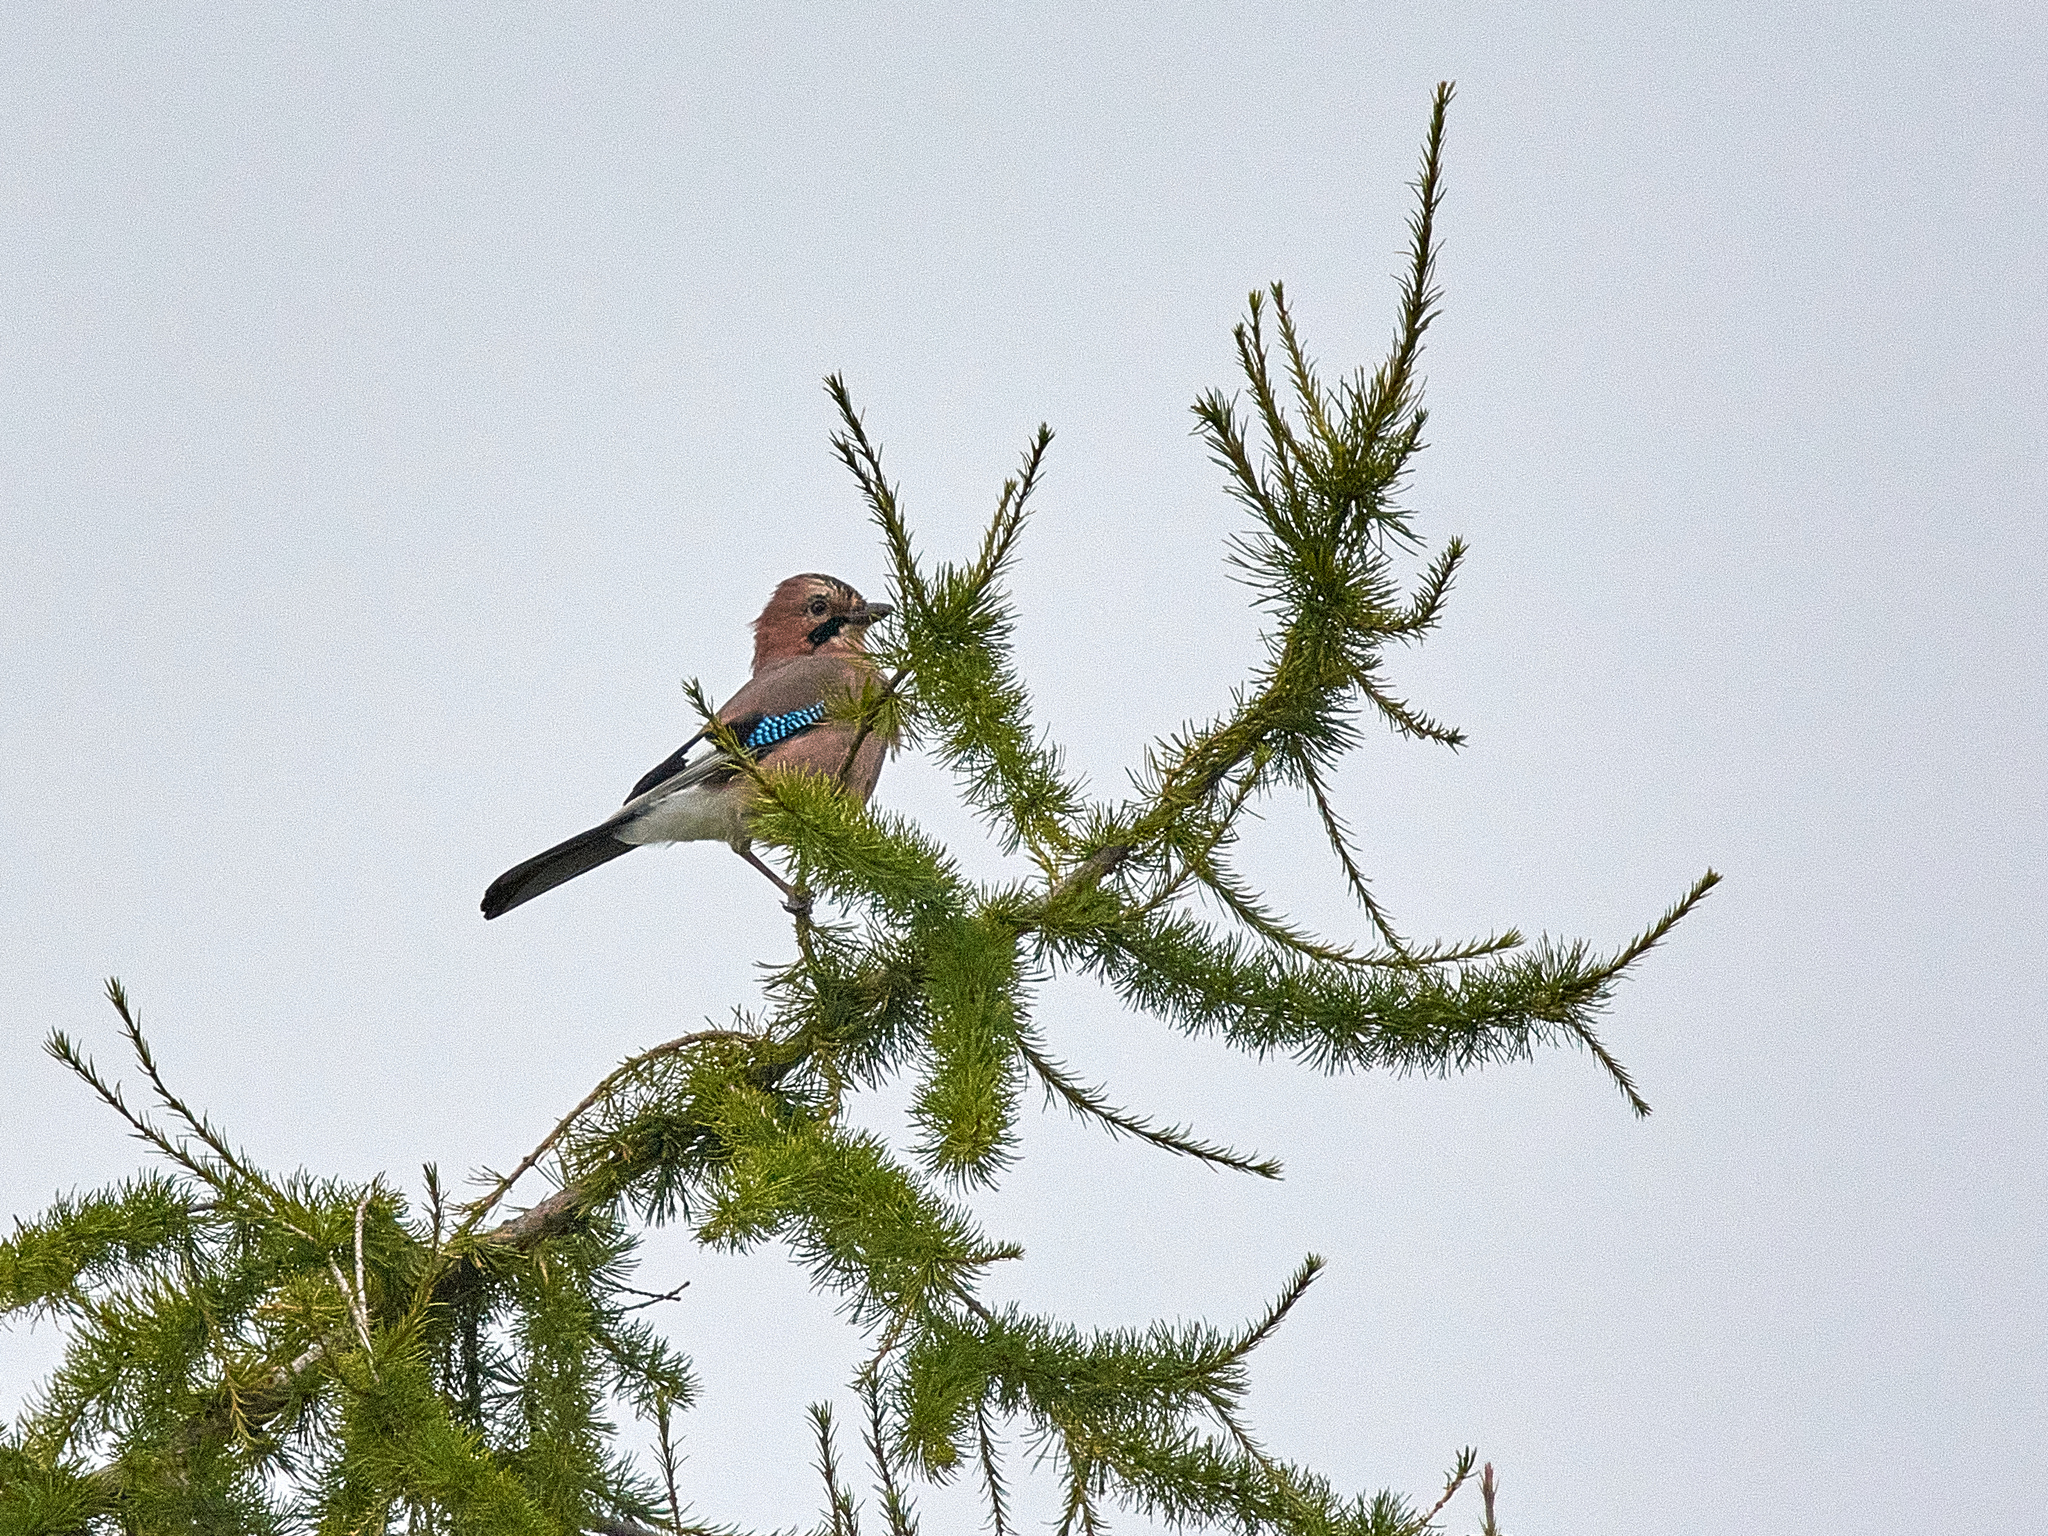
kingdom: Animalia
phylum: Chordata
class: Aves
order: Passeriformes
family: Corvidae
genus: Garrulus
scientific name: Garrulus glandarius
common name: Eurasian jay
